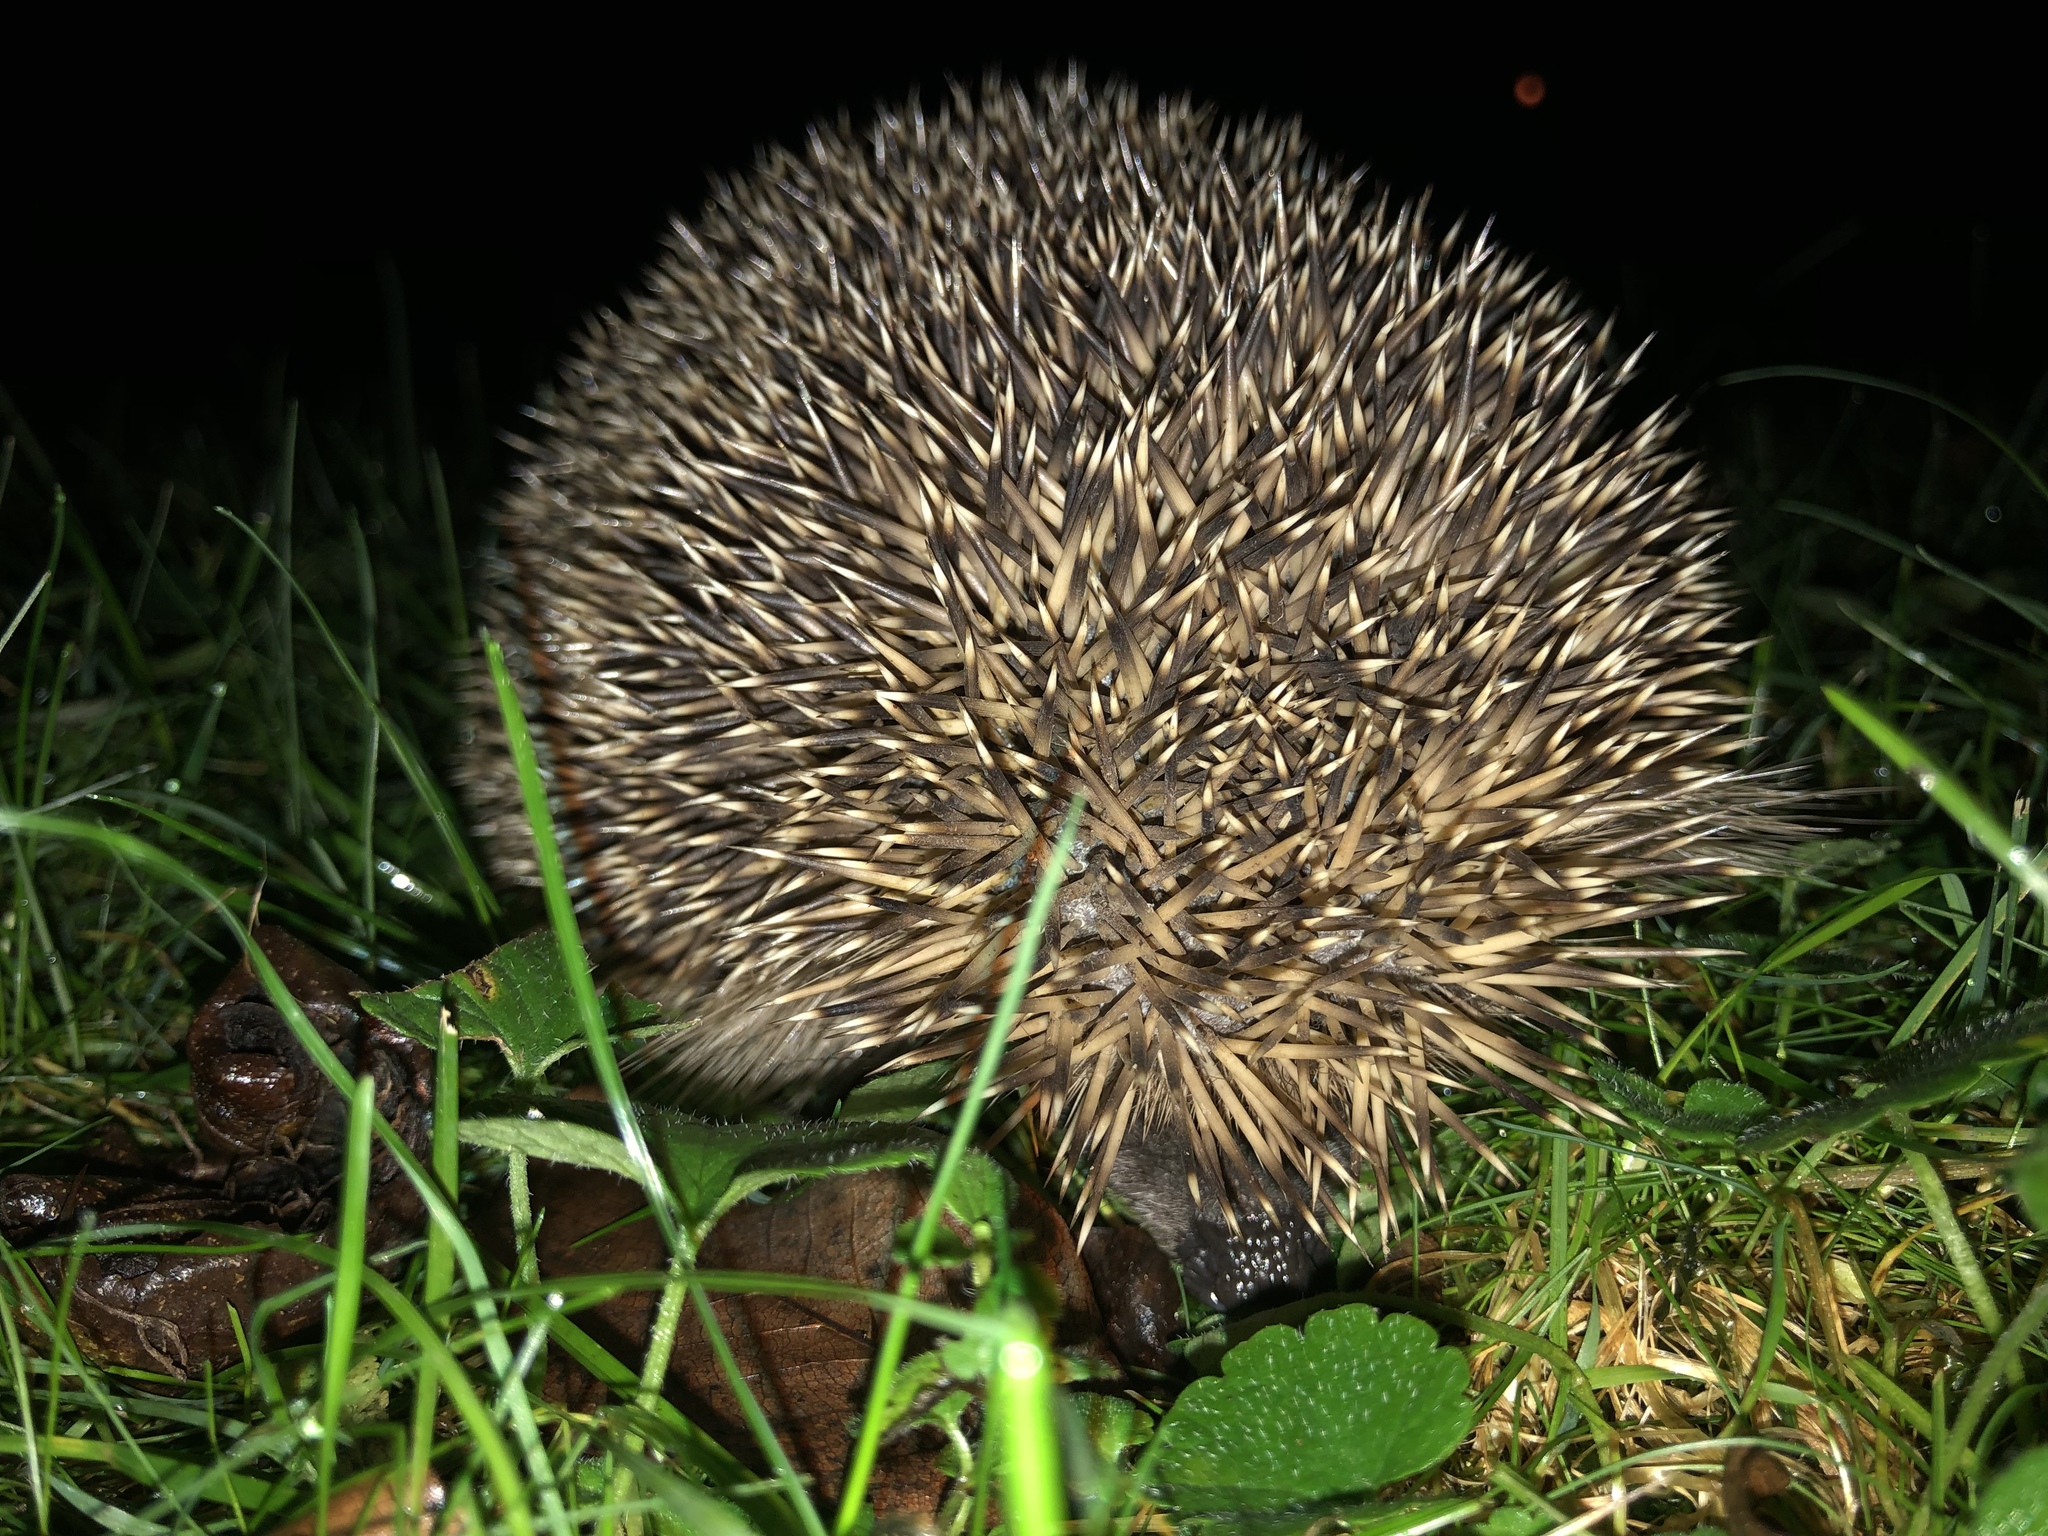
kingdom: Animalia
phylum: Chordata
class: Mammalia
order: Erinaceomorpha
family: Erinaceidae
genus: Erinaceus
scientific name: Erinaceus europaeus
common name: West european hedgehog
